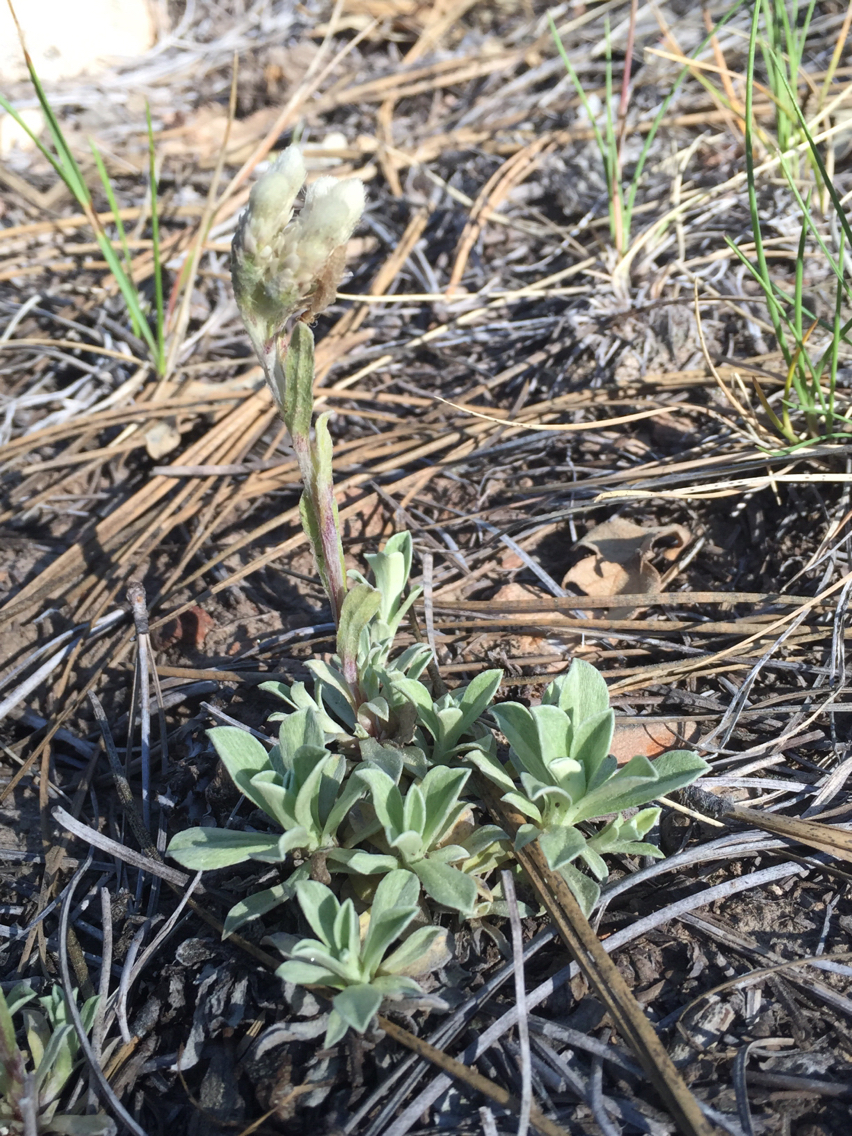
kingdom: Plantae
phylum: Tracheophyta
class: Magnoliopsida
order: Asterales
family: Asteraceae
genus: Antennaria
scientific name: Antennaria parvifolia
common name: Nuttall's pussytoes
